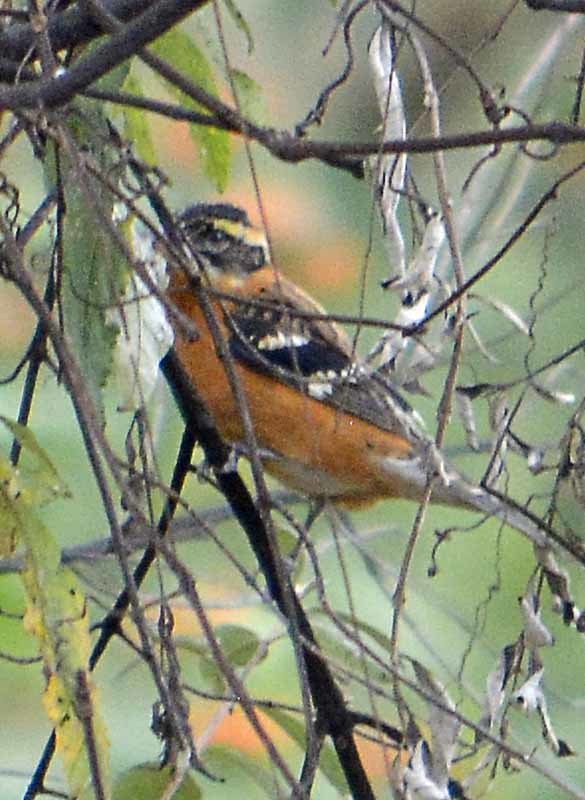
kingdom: Animalia
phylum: Chordata
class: Aves
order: Passeriformes
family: Cardinalidae
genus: Pheucticus
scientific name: Pheucticus melanocephalus
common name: Black-headed grosbeak
